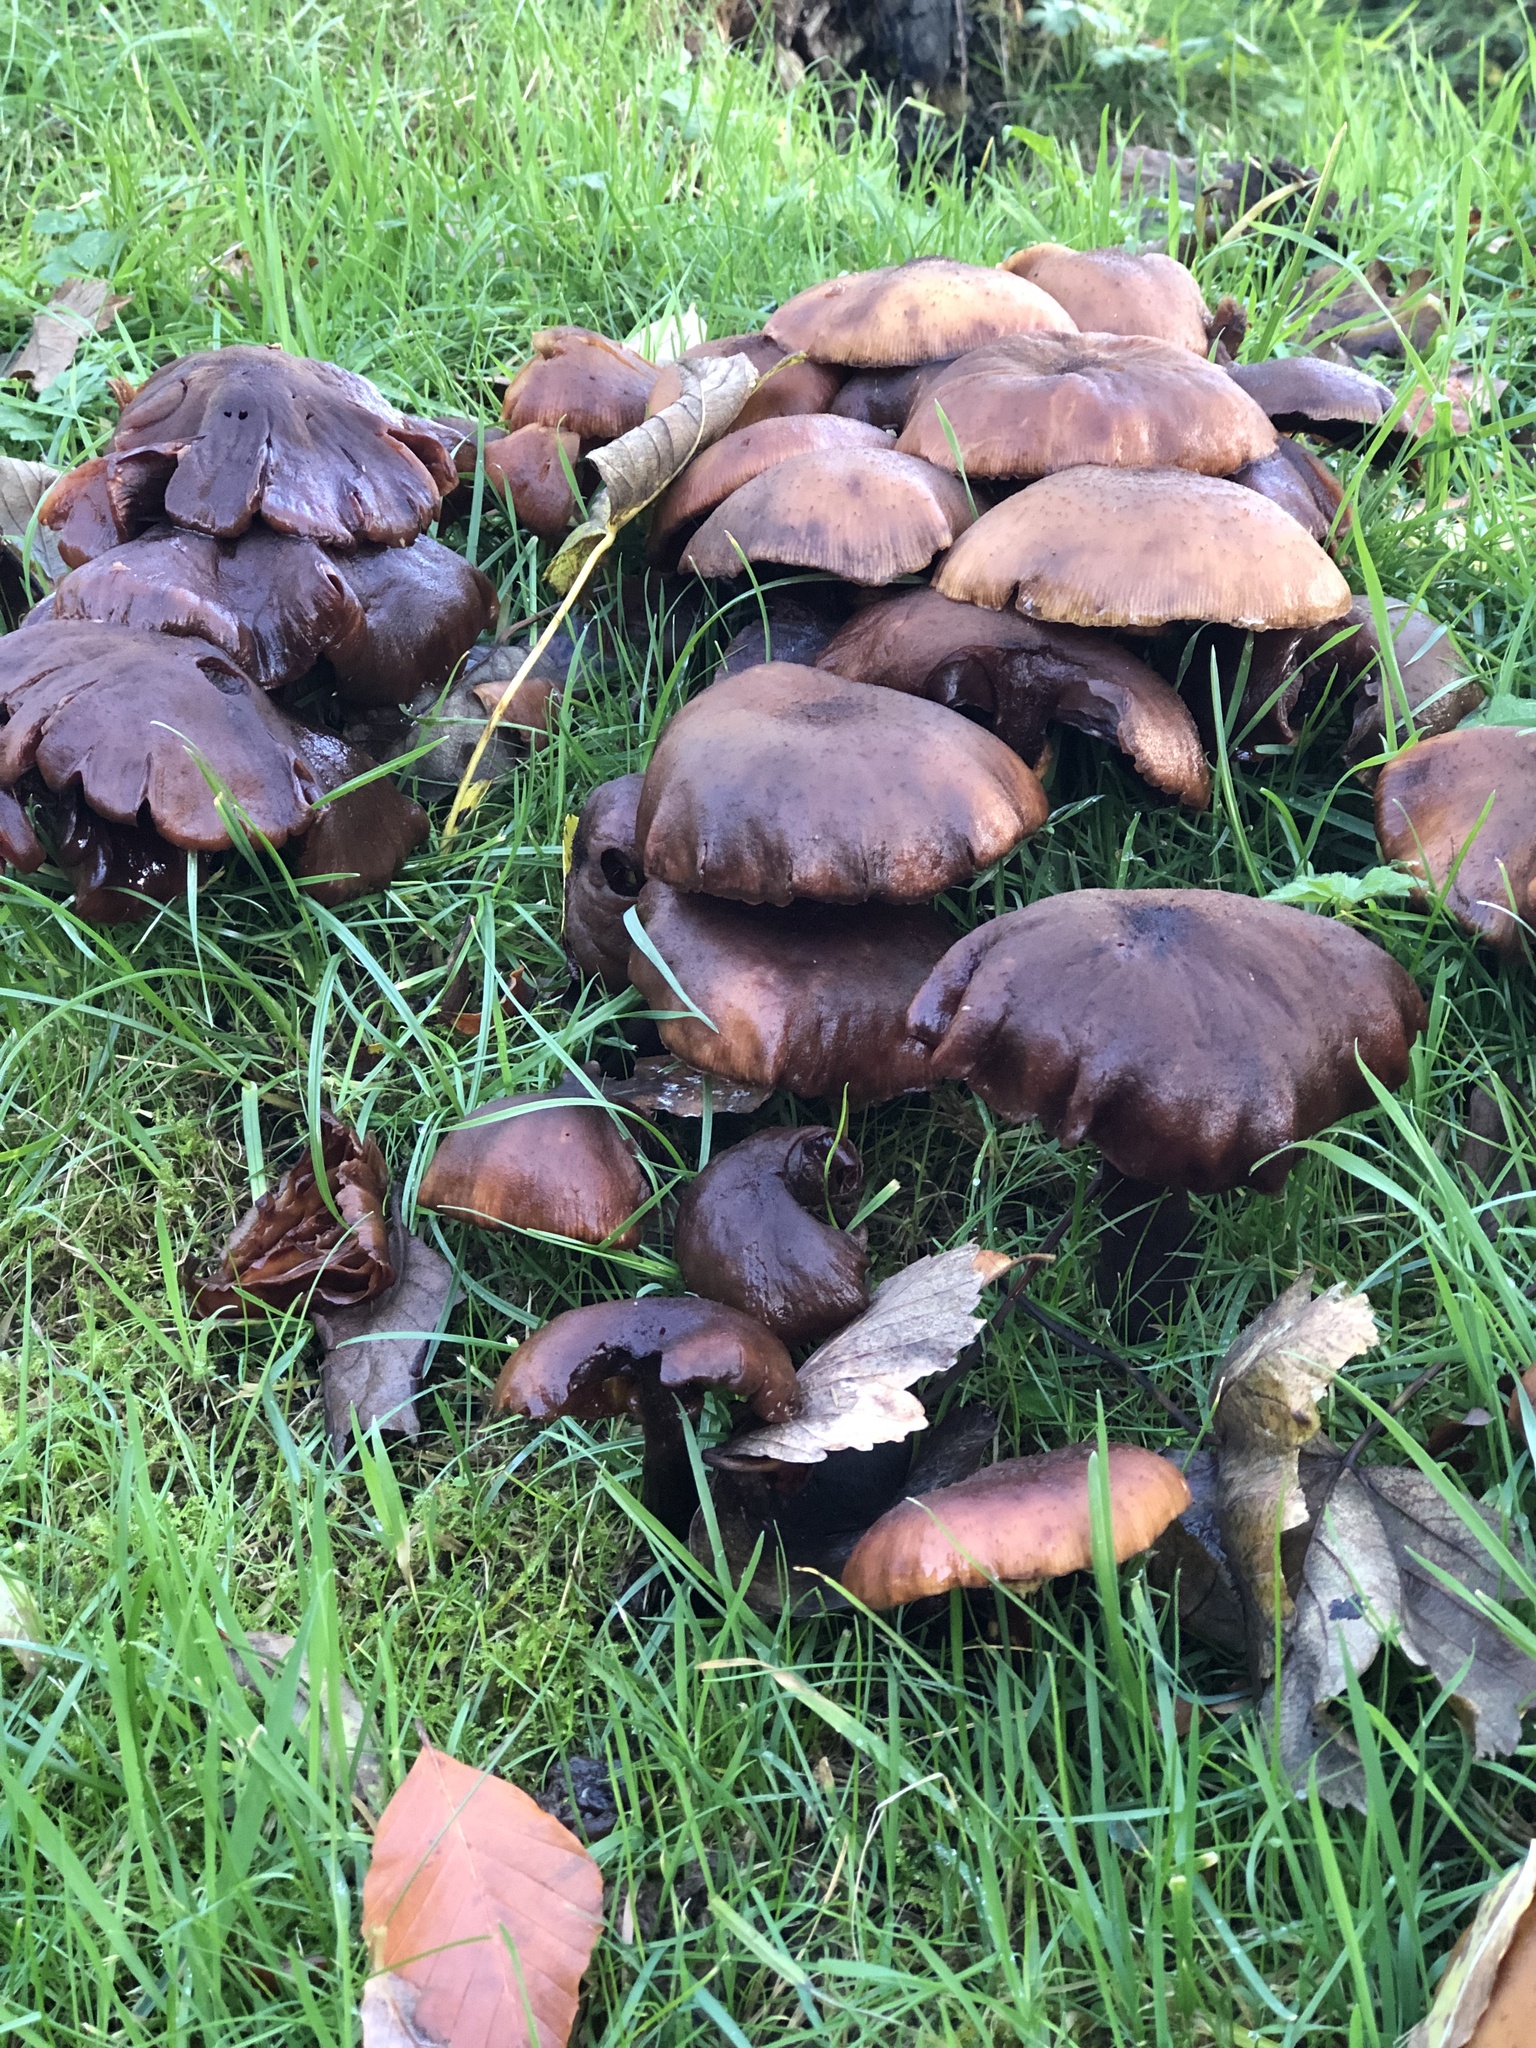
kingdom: Fungi
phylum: Basidiomycota
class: Agaricomycetes
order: Agaricales
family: Physalacriaceae
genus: Armillaria
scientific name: Armillaria mellea
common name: Honey fungus
